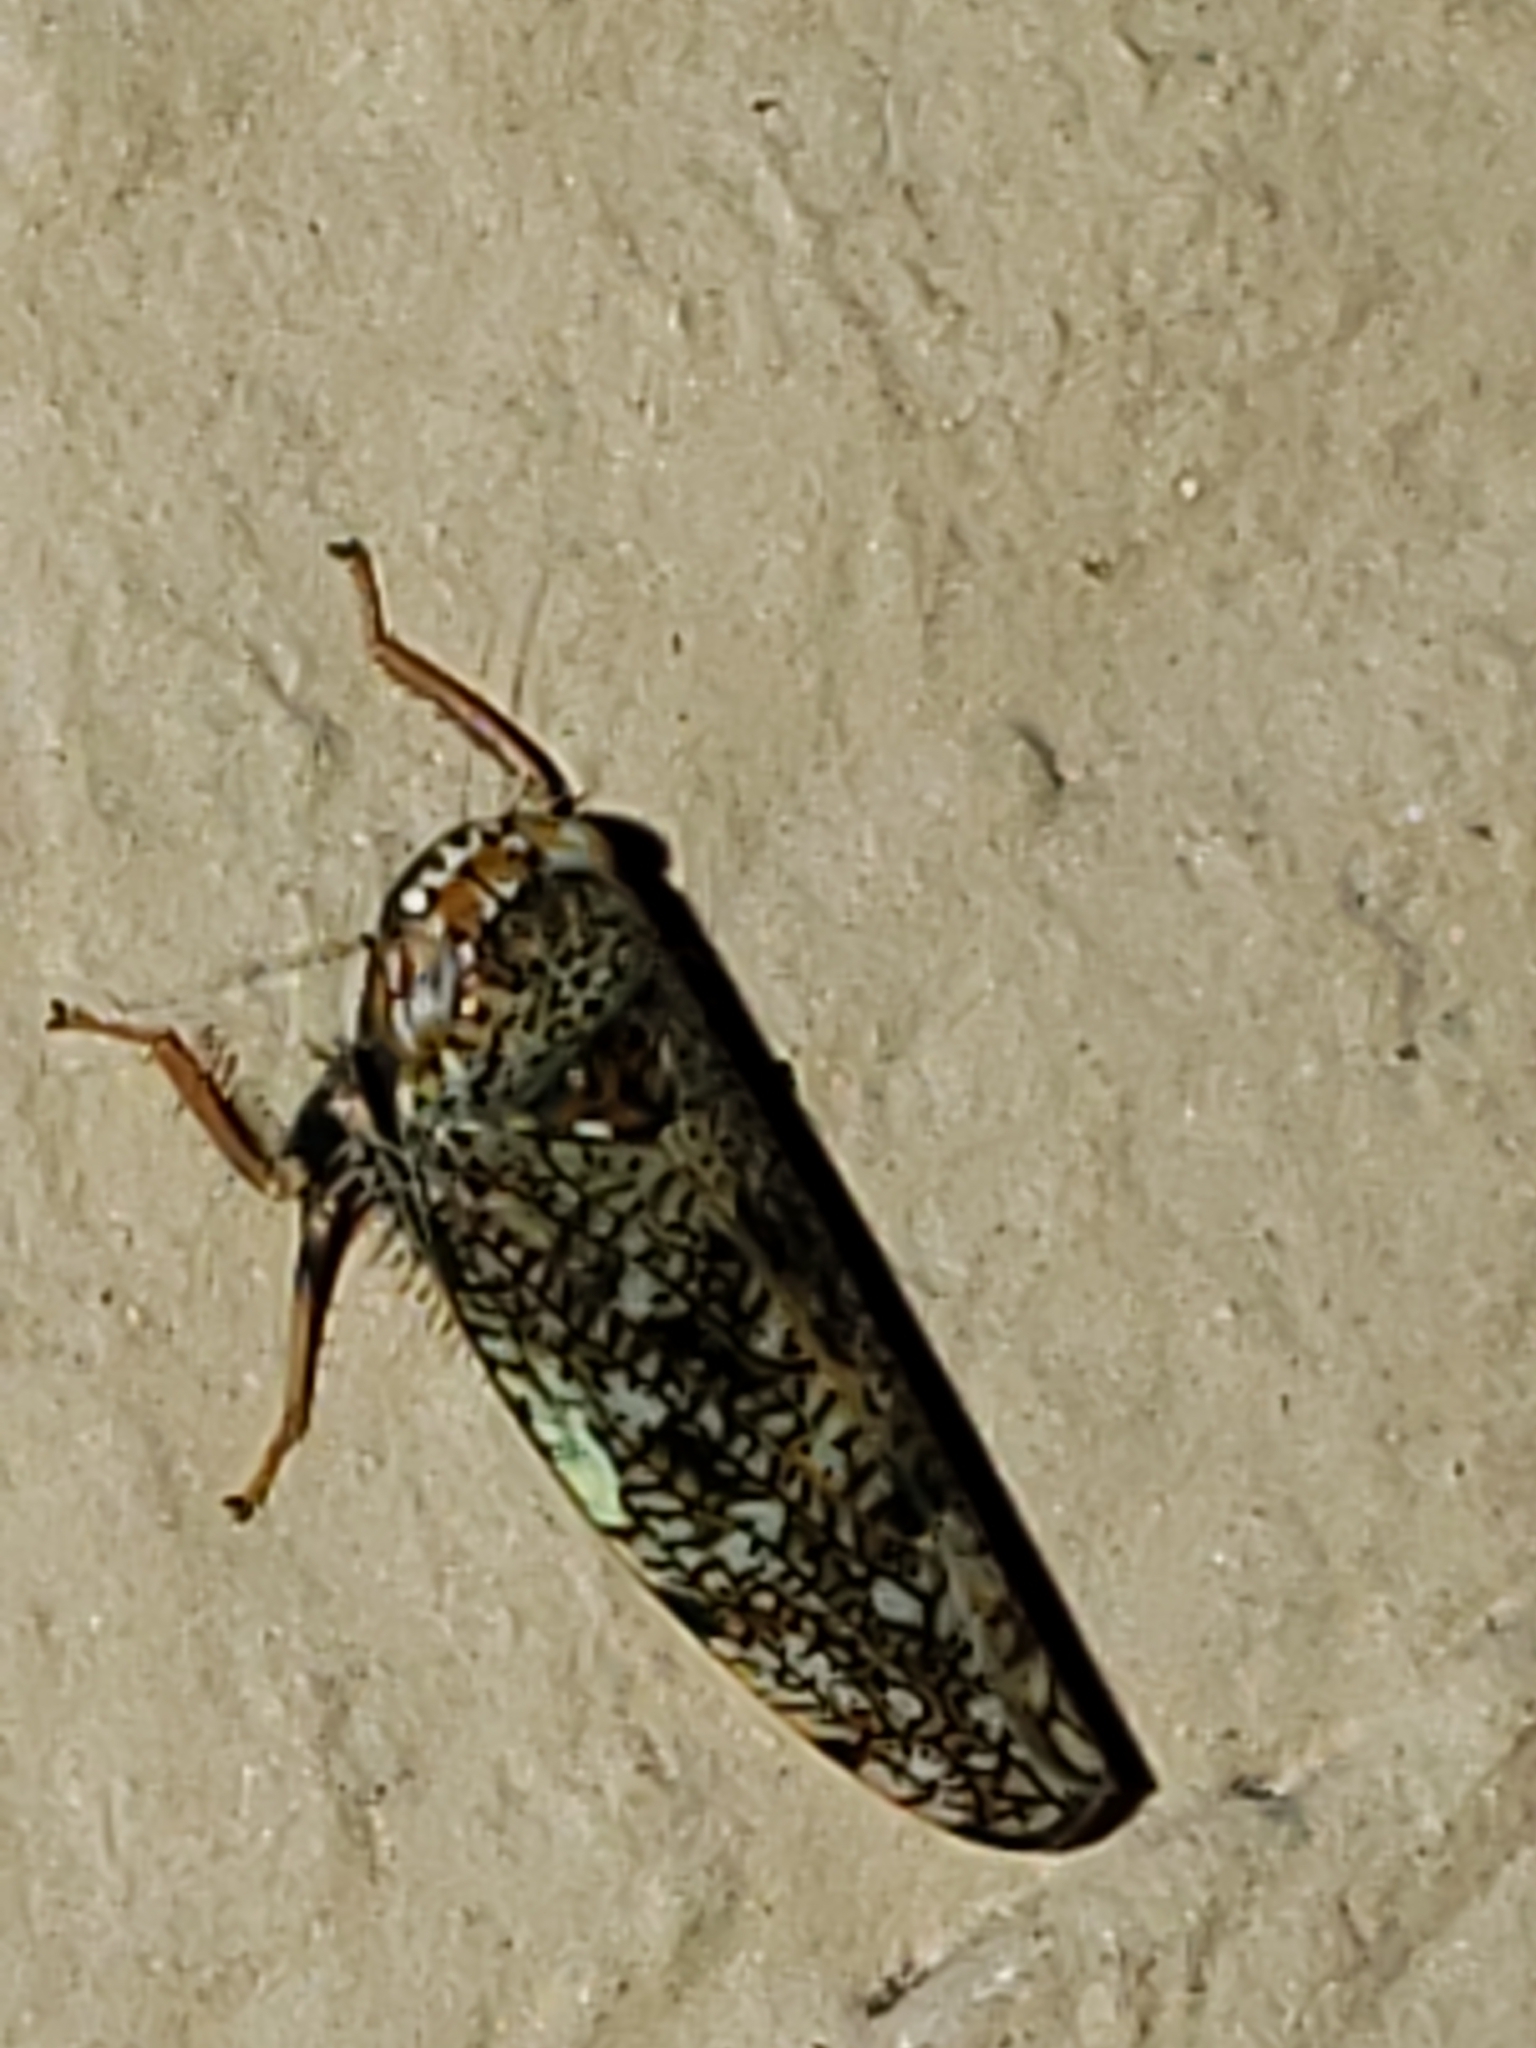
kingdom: Animalia
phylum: Arthropoda
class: Insecta
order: Hemiptera
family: Cicadellidae
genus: Orientus
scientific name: Orientus ishidae
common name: Japanese leafhopper
